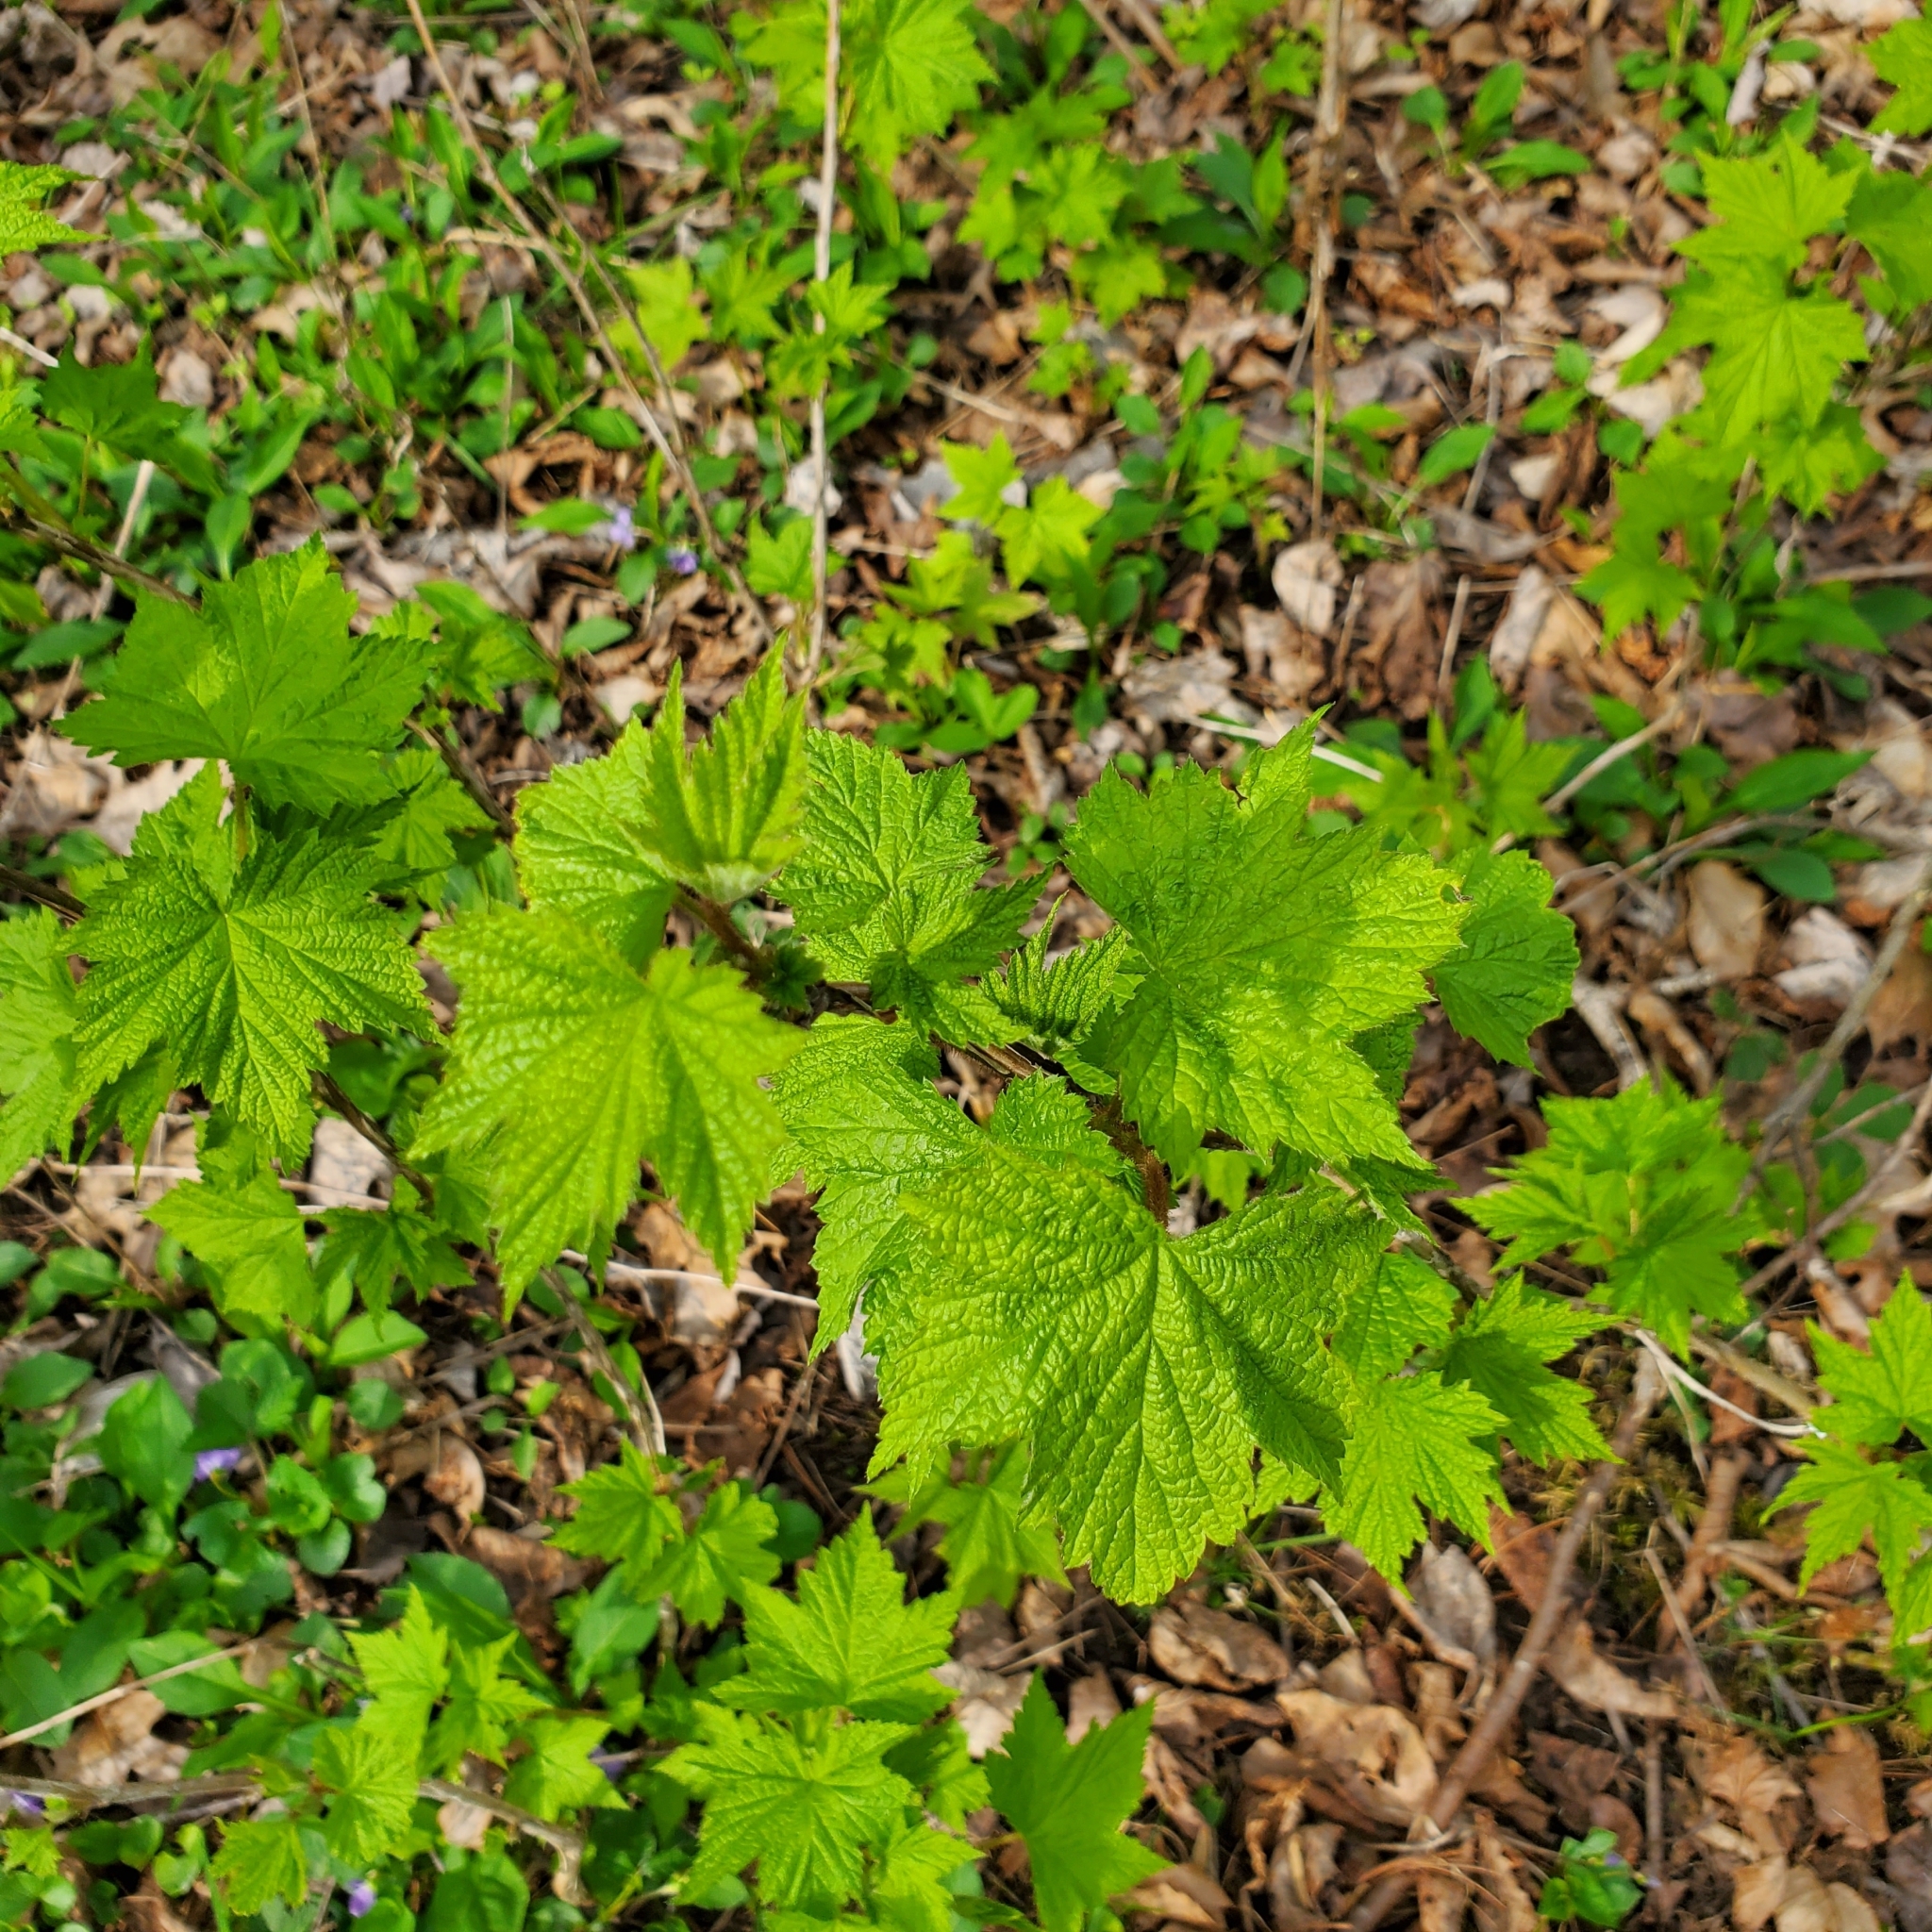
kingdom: Plantae
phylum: Tracheophyta
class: Magnoliopsida
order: Rosales
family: Rosaceae
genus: Rubus
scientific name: Rubus odoratus
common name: Purple-flowered raspberry
